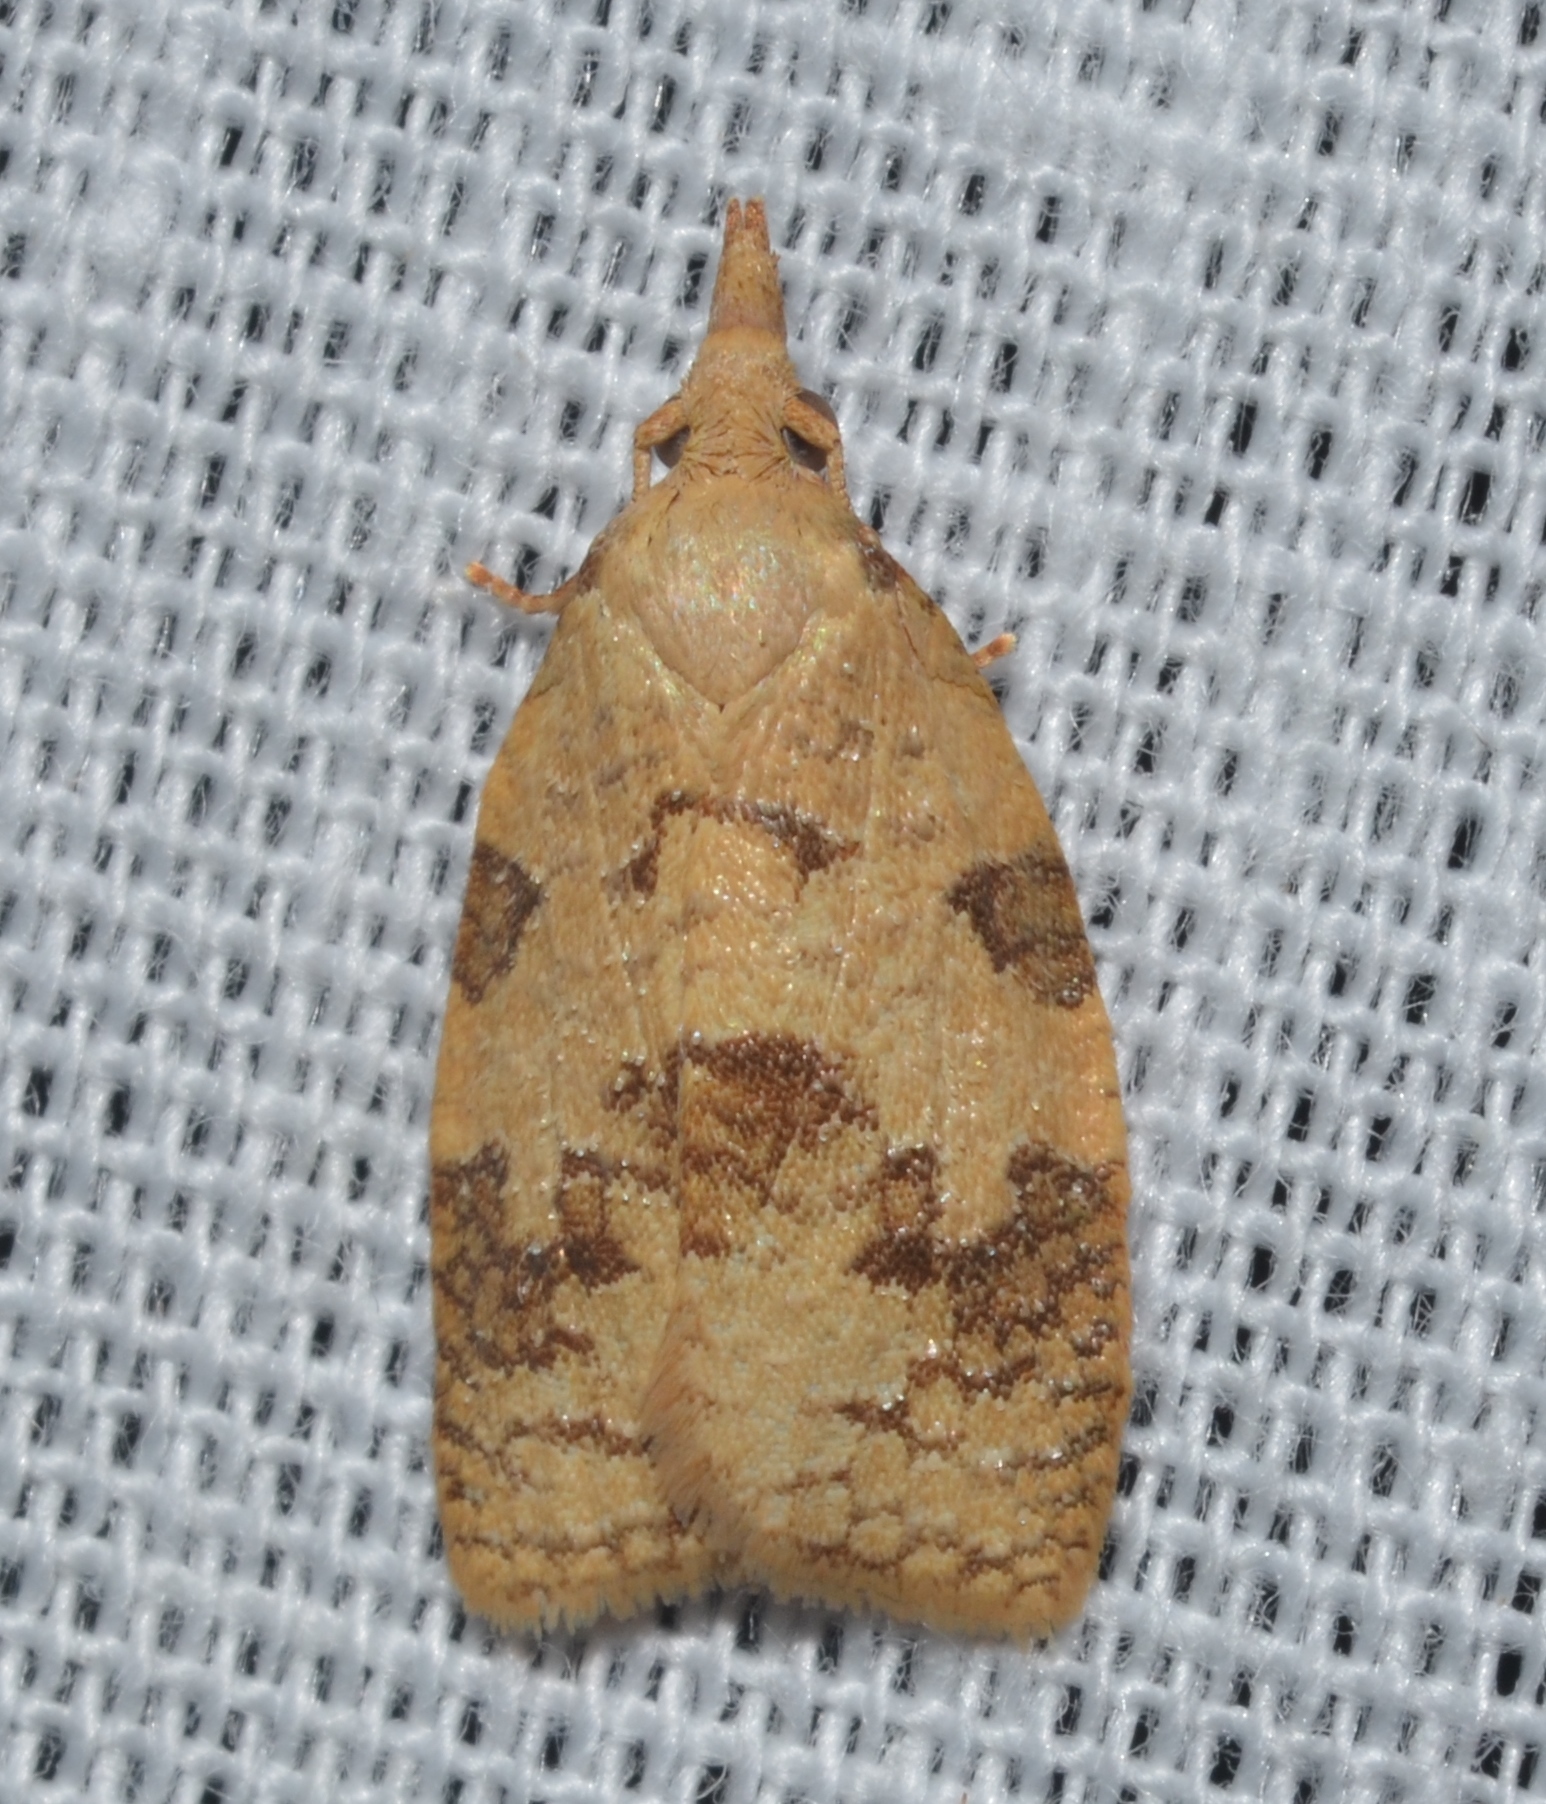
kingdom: Animalia
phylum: Arthropoda
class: Insecta
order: Lepidoptera
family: Tortricidae
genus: Cenopis
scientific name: Cenopis saracana
